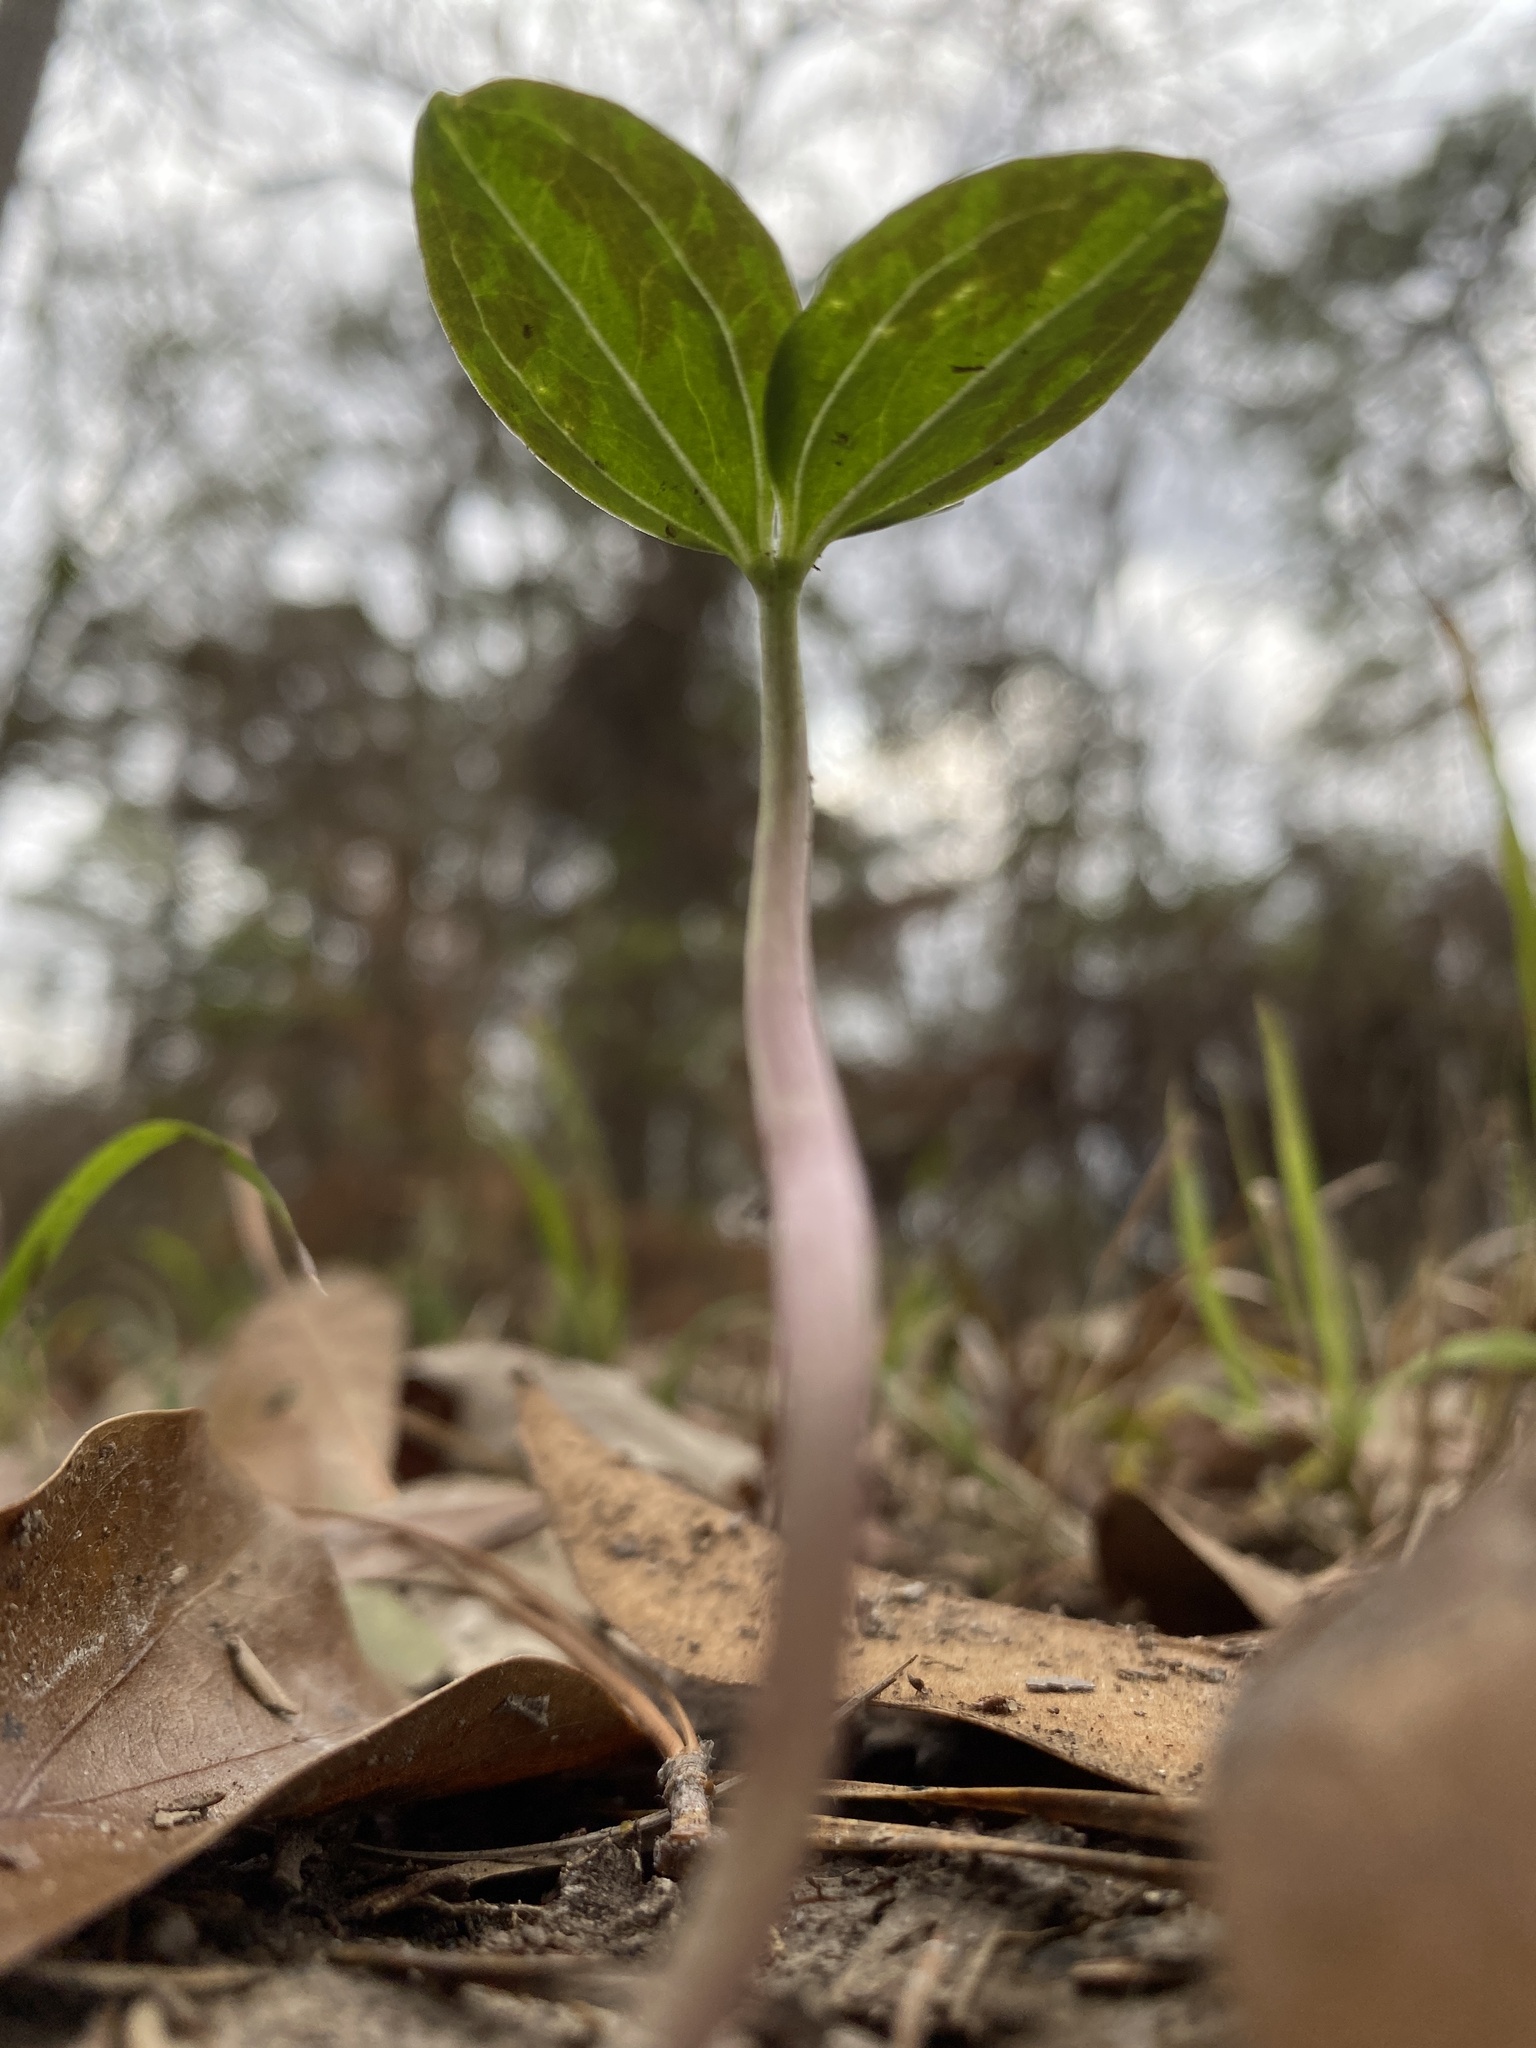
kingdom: Plantae
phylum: Tracheophyta
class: Liliopsida
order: Liliales
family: Melanthiaceae
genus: Trillium
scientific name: Trillium foetidissimum
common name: Mississippi river trillium
